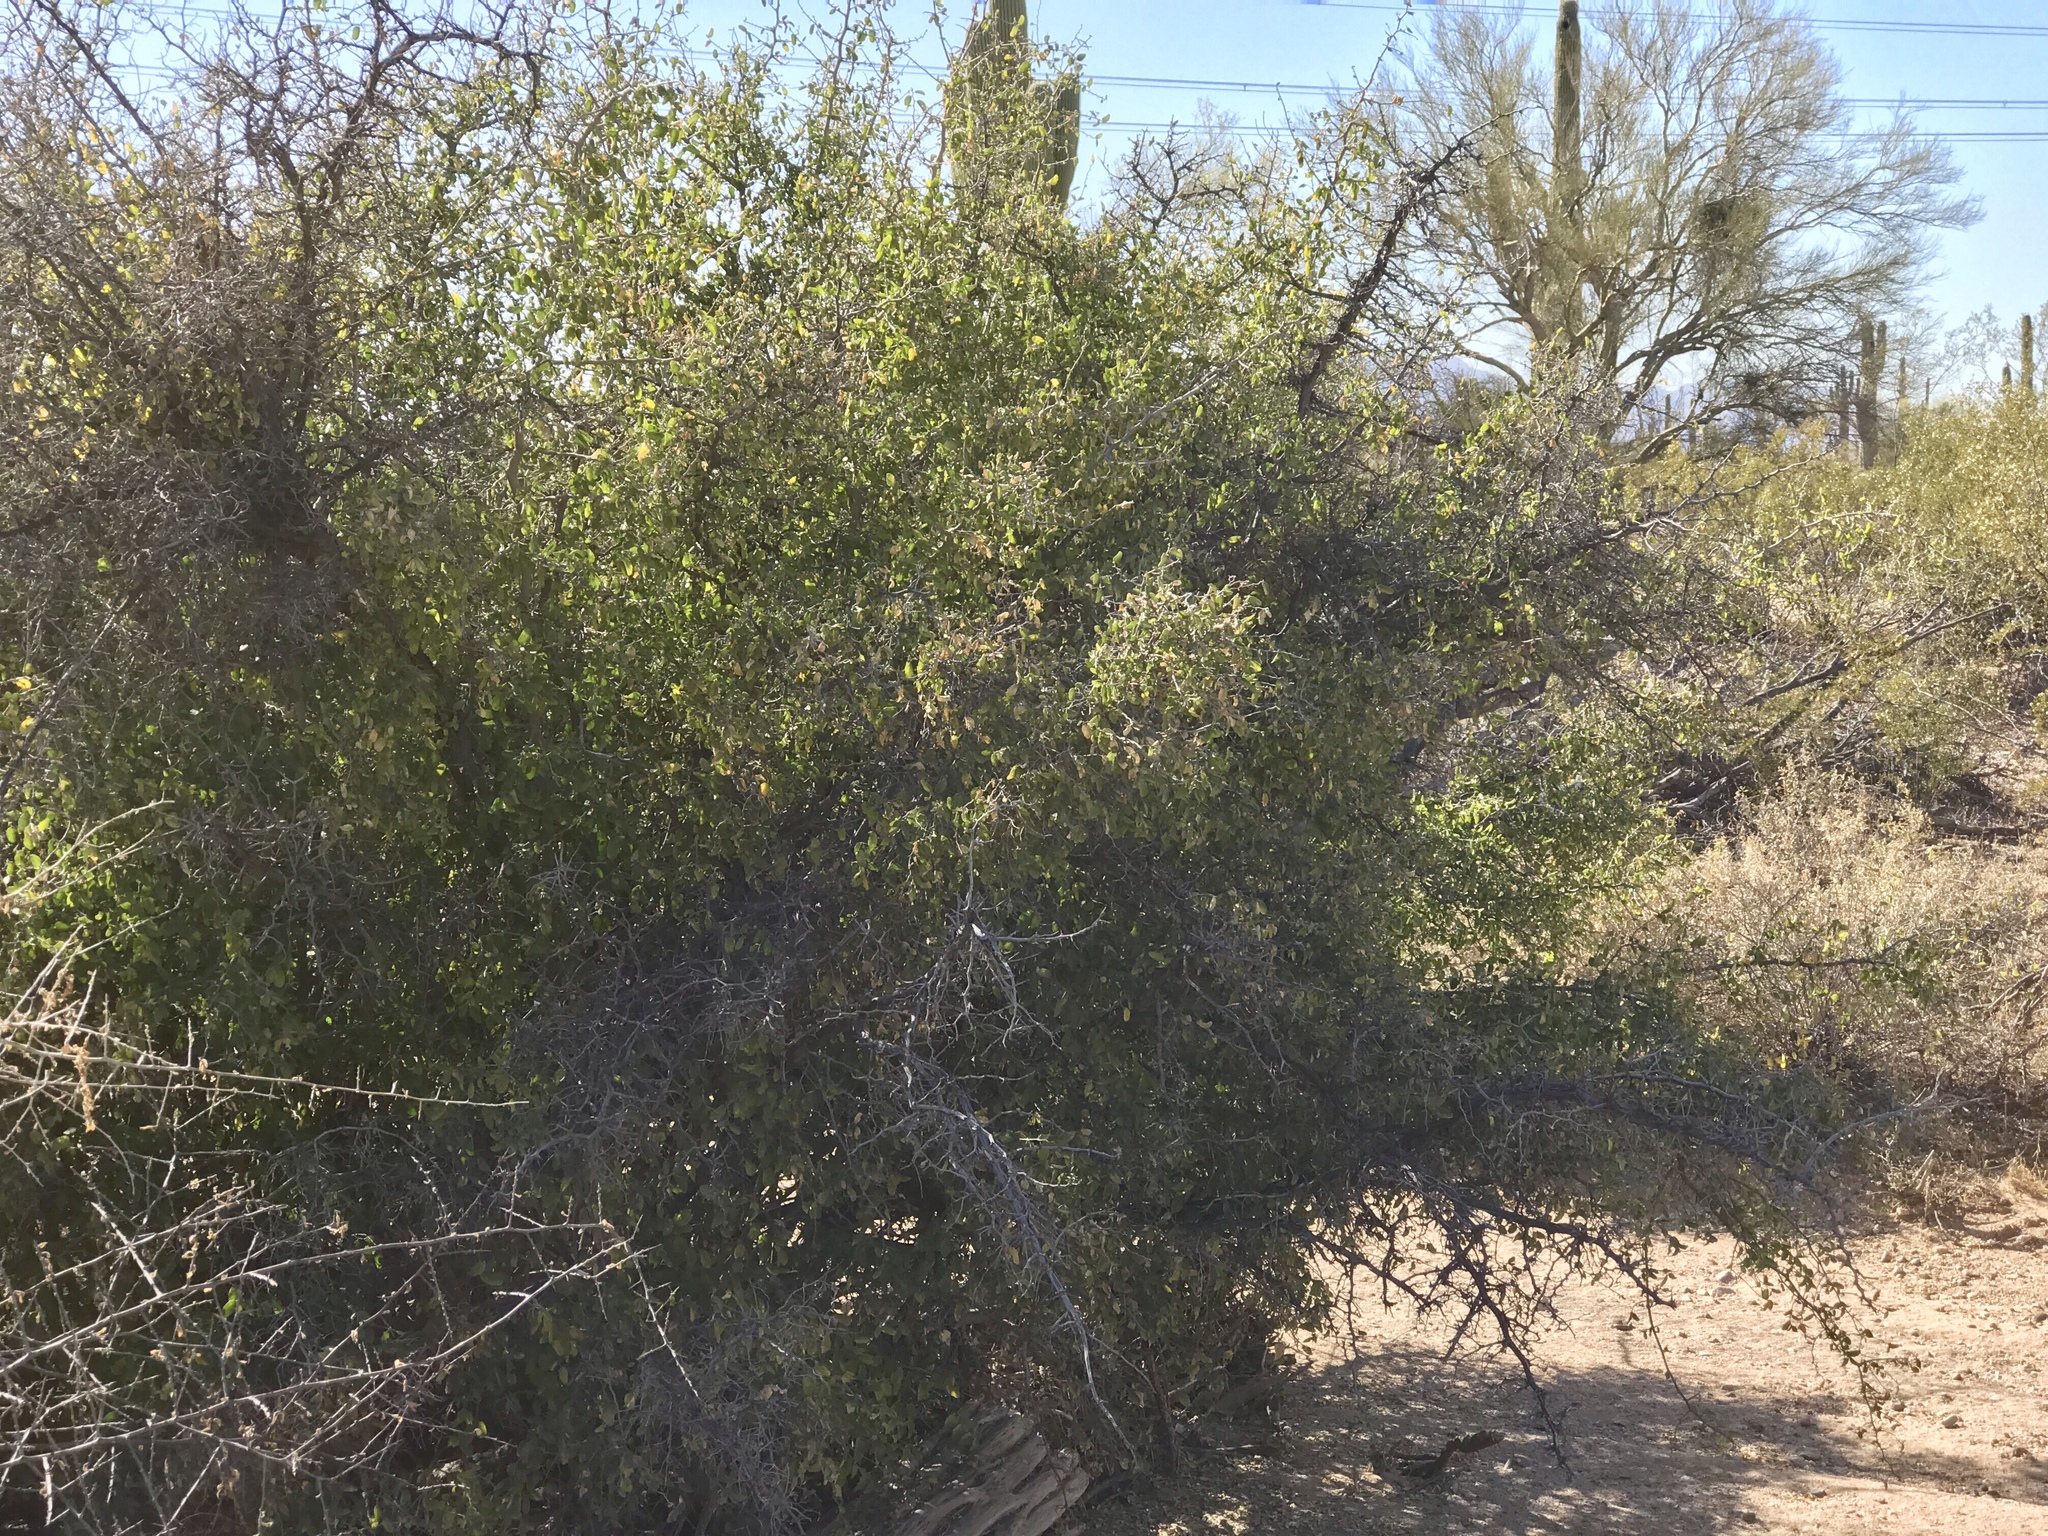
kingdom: Plantae
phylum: Tracheophyta
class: Magnoliopsida
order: Rosales
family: Cannabaceae
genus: Celtis
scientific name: Celtis pallida
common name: Desert hackberry
